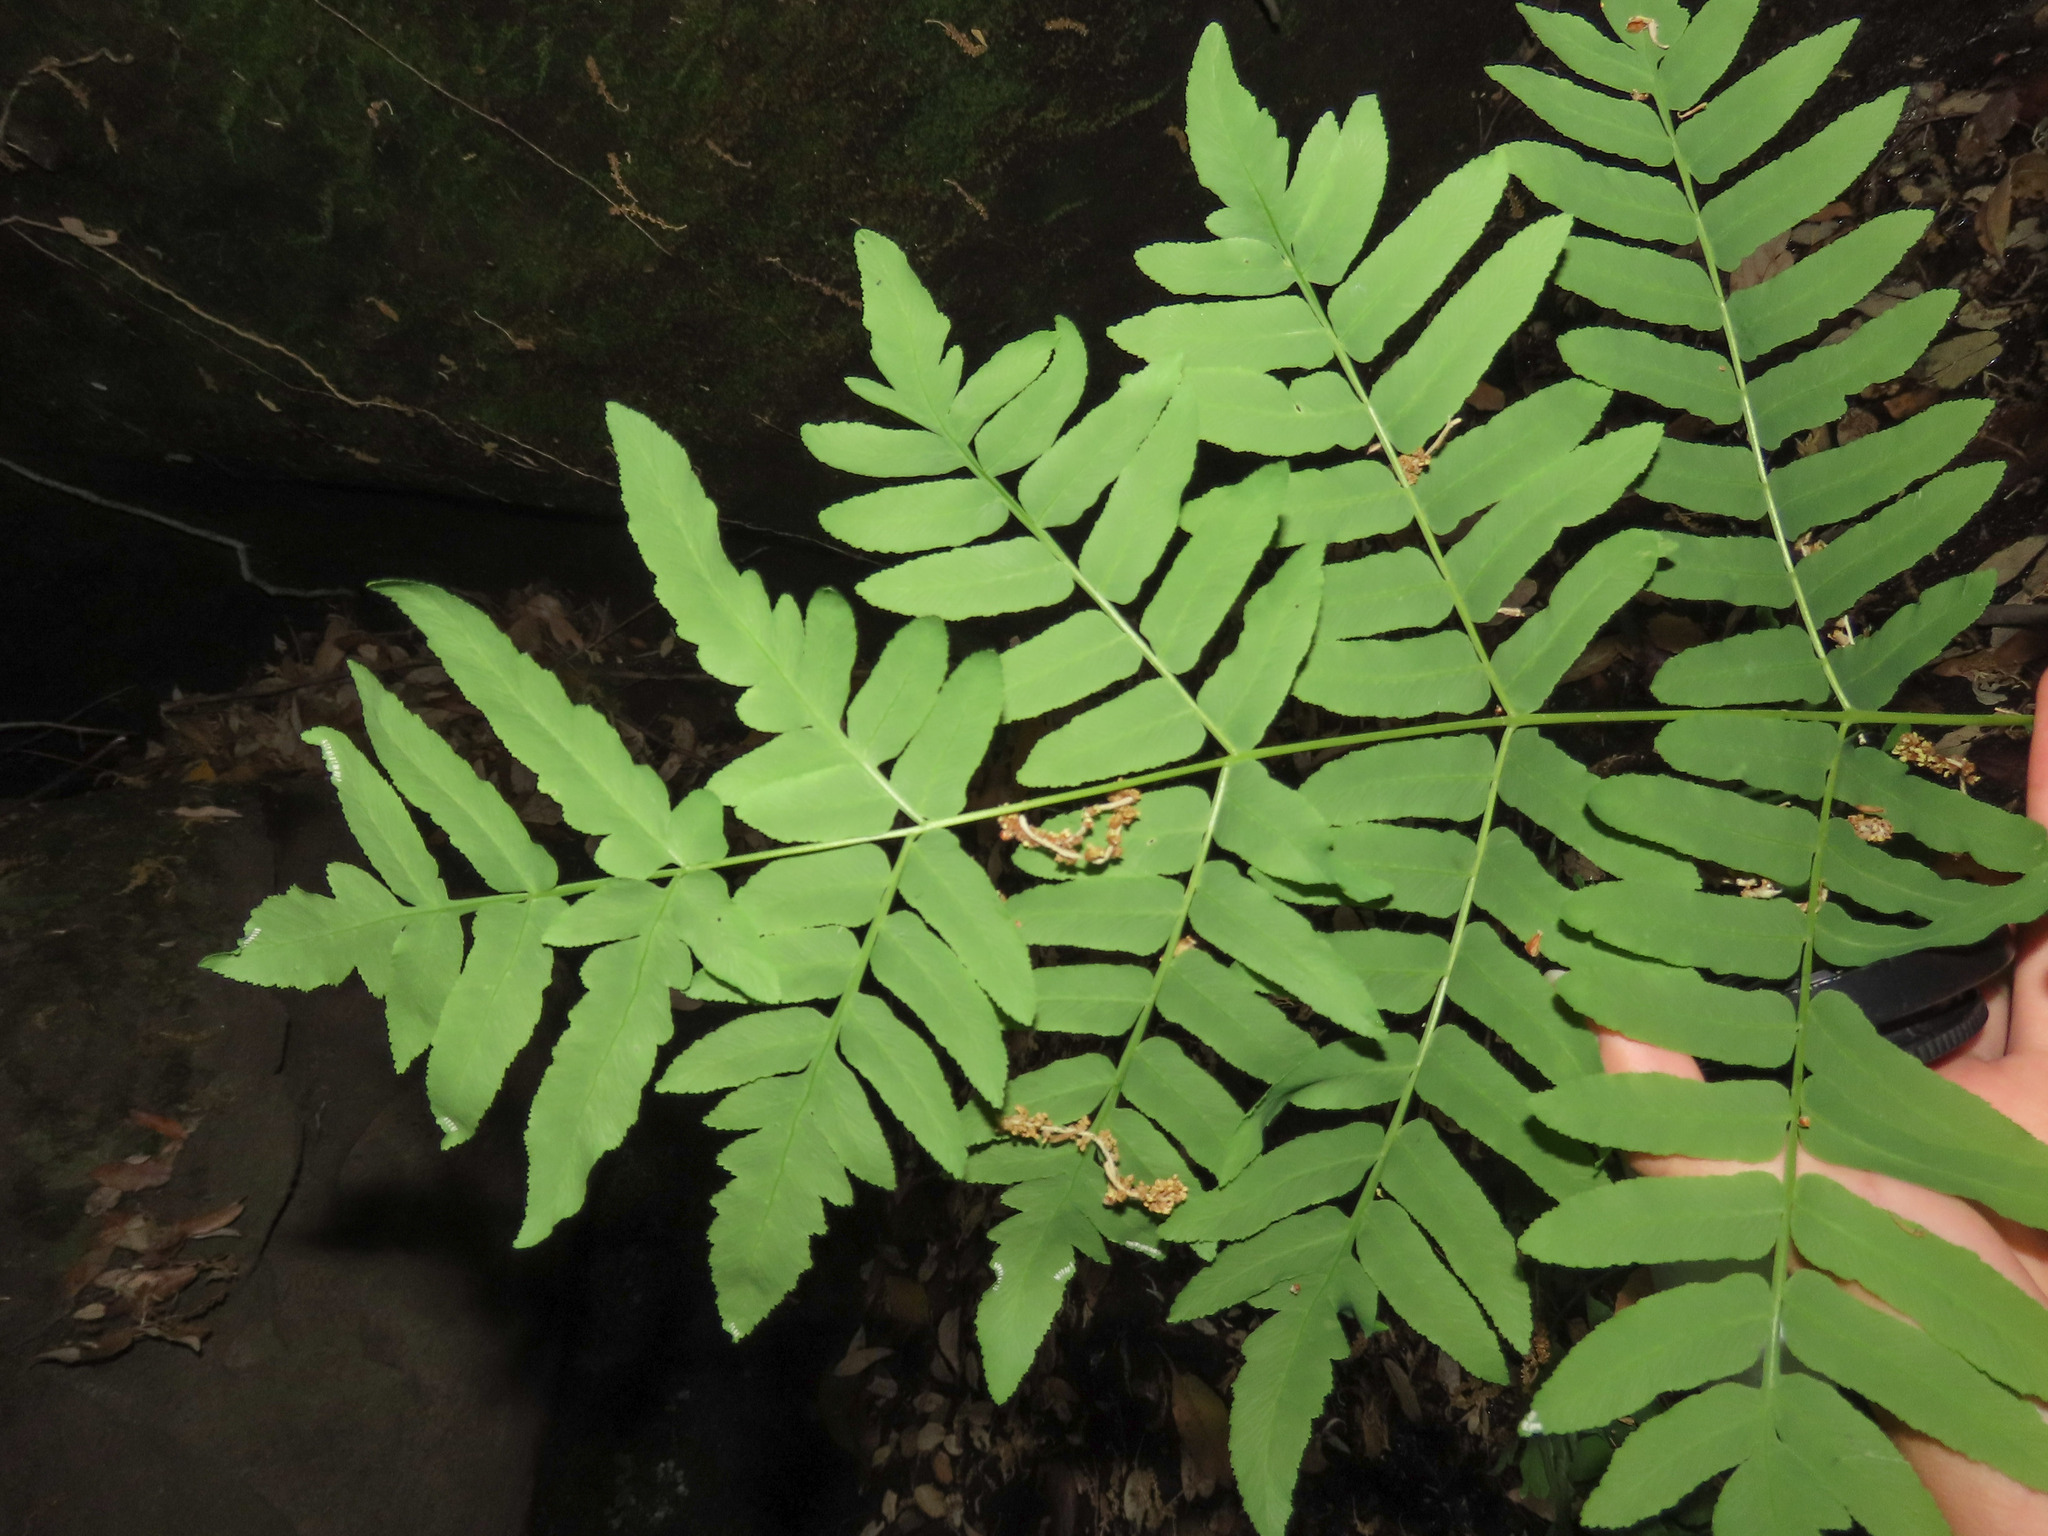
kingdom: Plantae
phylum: Tracheophyta
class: Polypodiopsida
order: Osmundales
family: Osmundaceae
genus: Osmunda
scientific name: Osmunda regalis
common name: Royal fern
